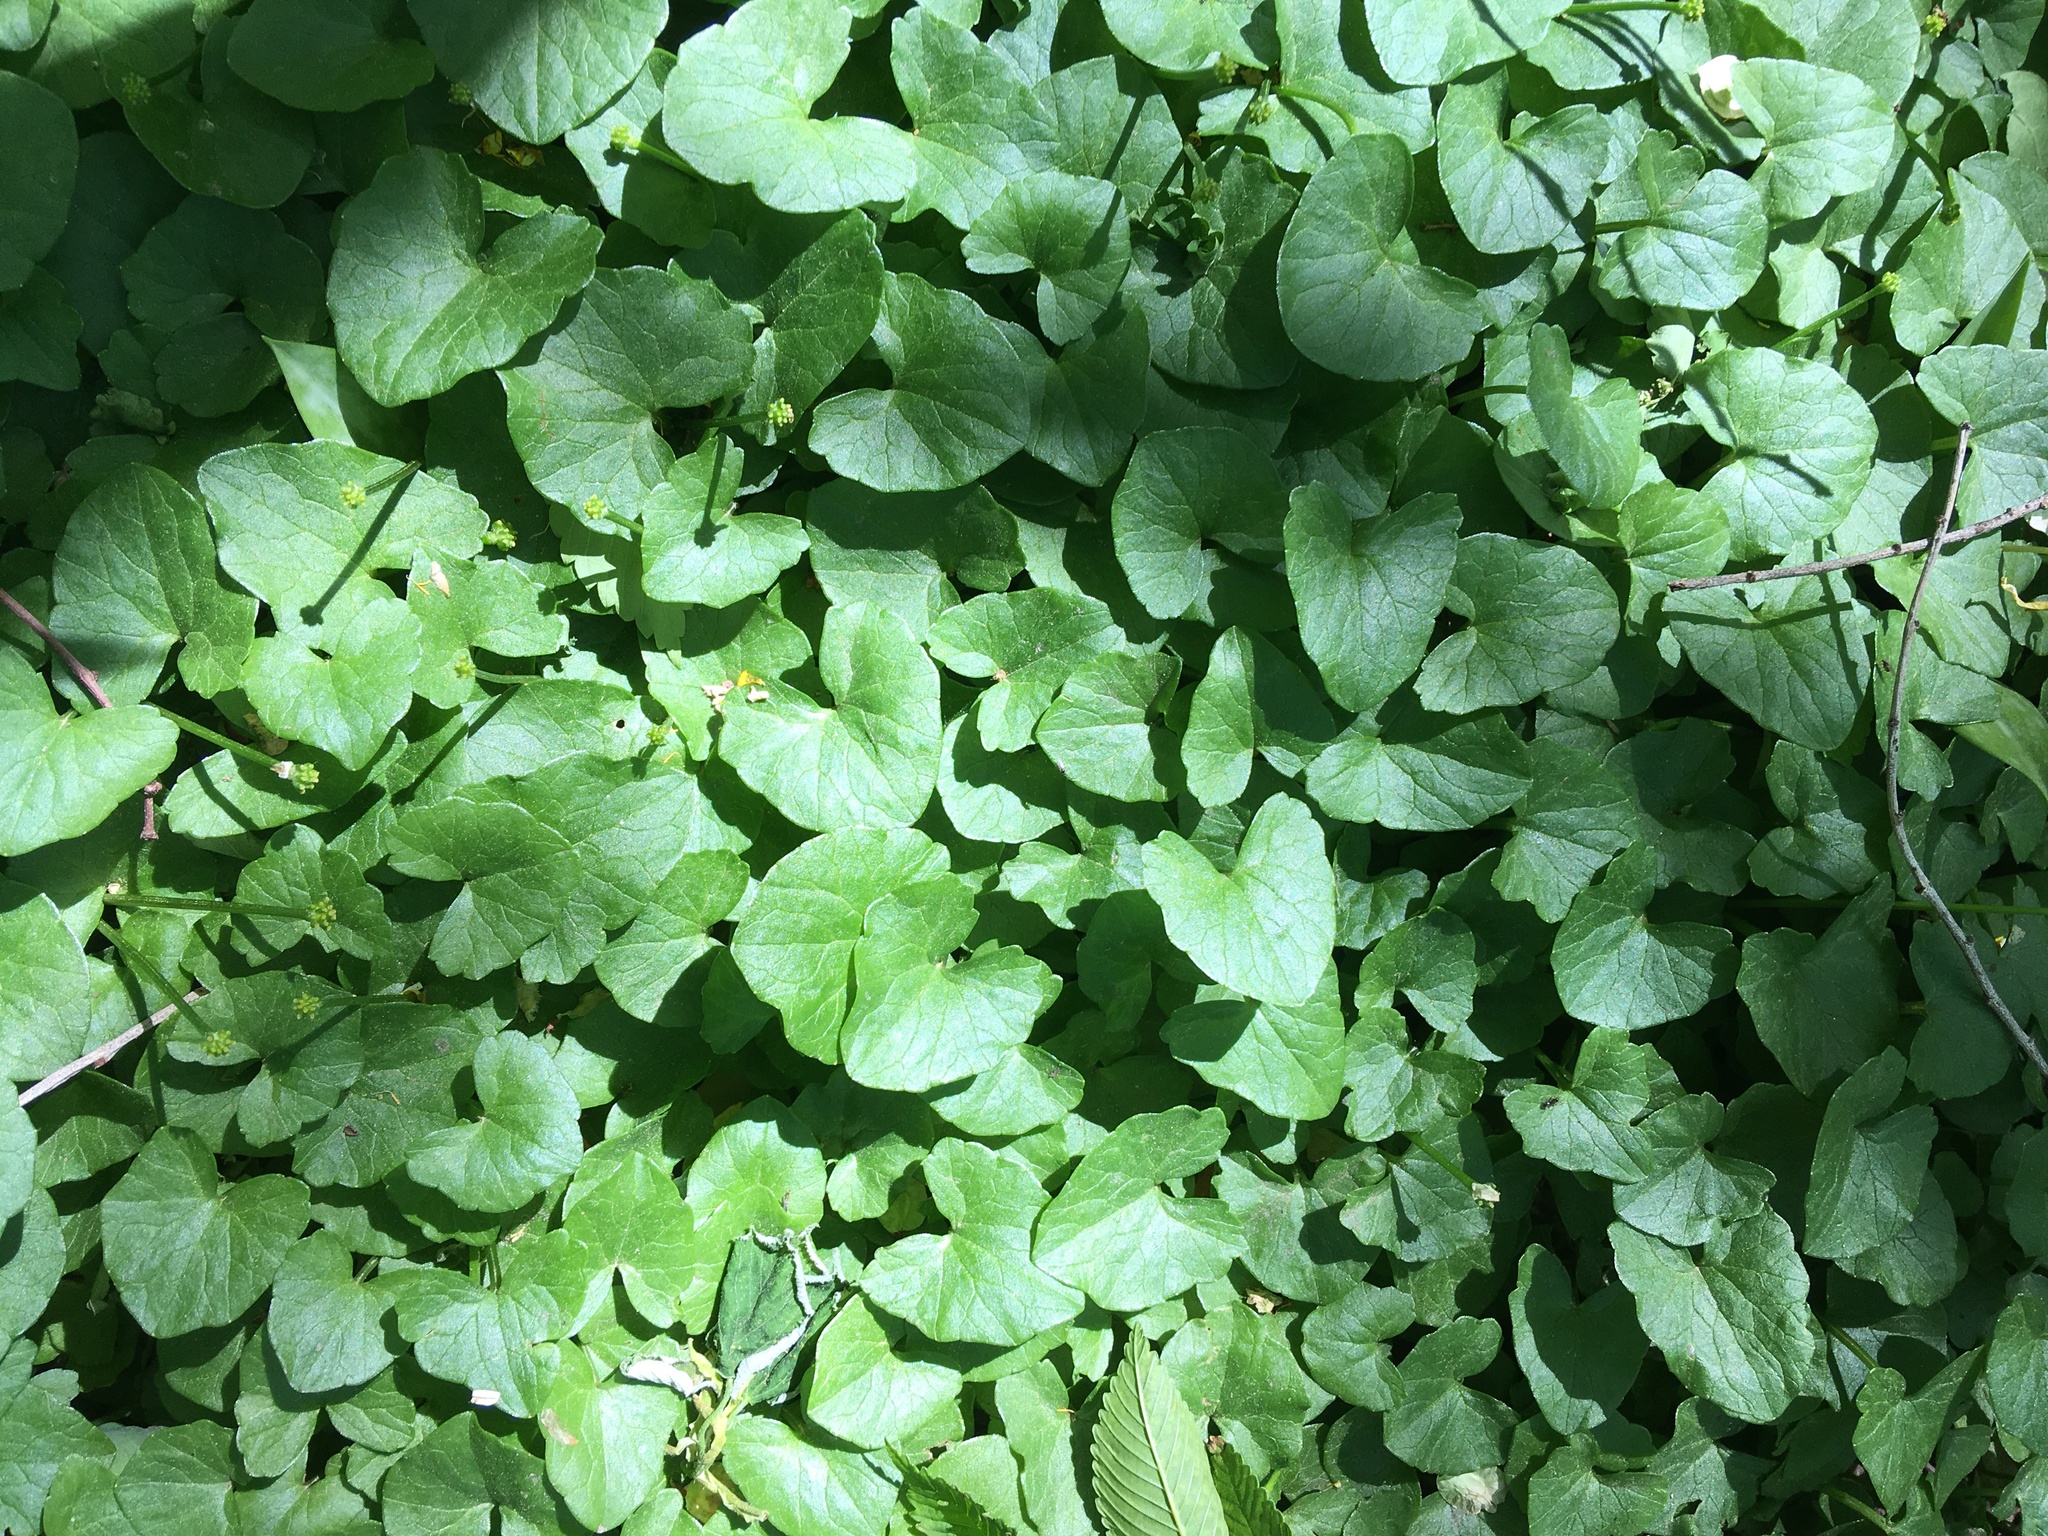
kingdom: Plantae
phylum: Tracheophyta
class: Magnoliopsida
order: Ranunculales
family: Ranunculaceae
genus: Ficaria
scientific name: Ficaria verna
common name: Lesser celandine
